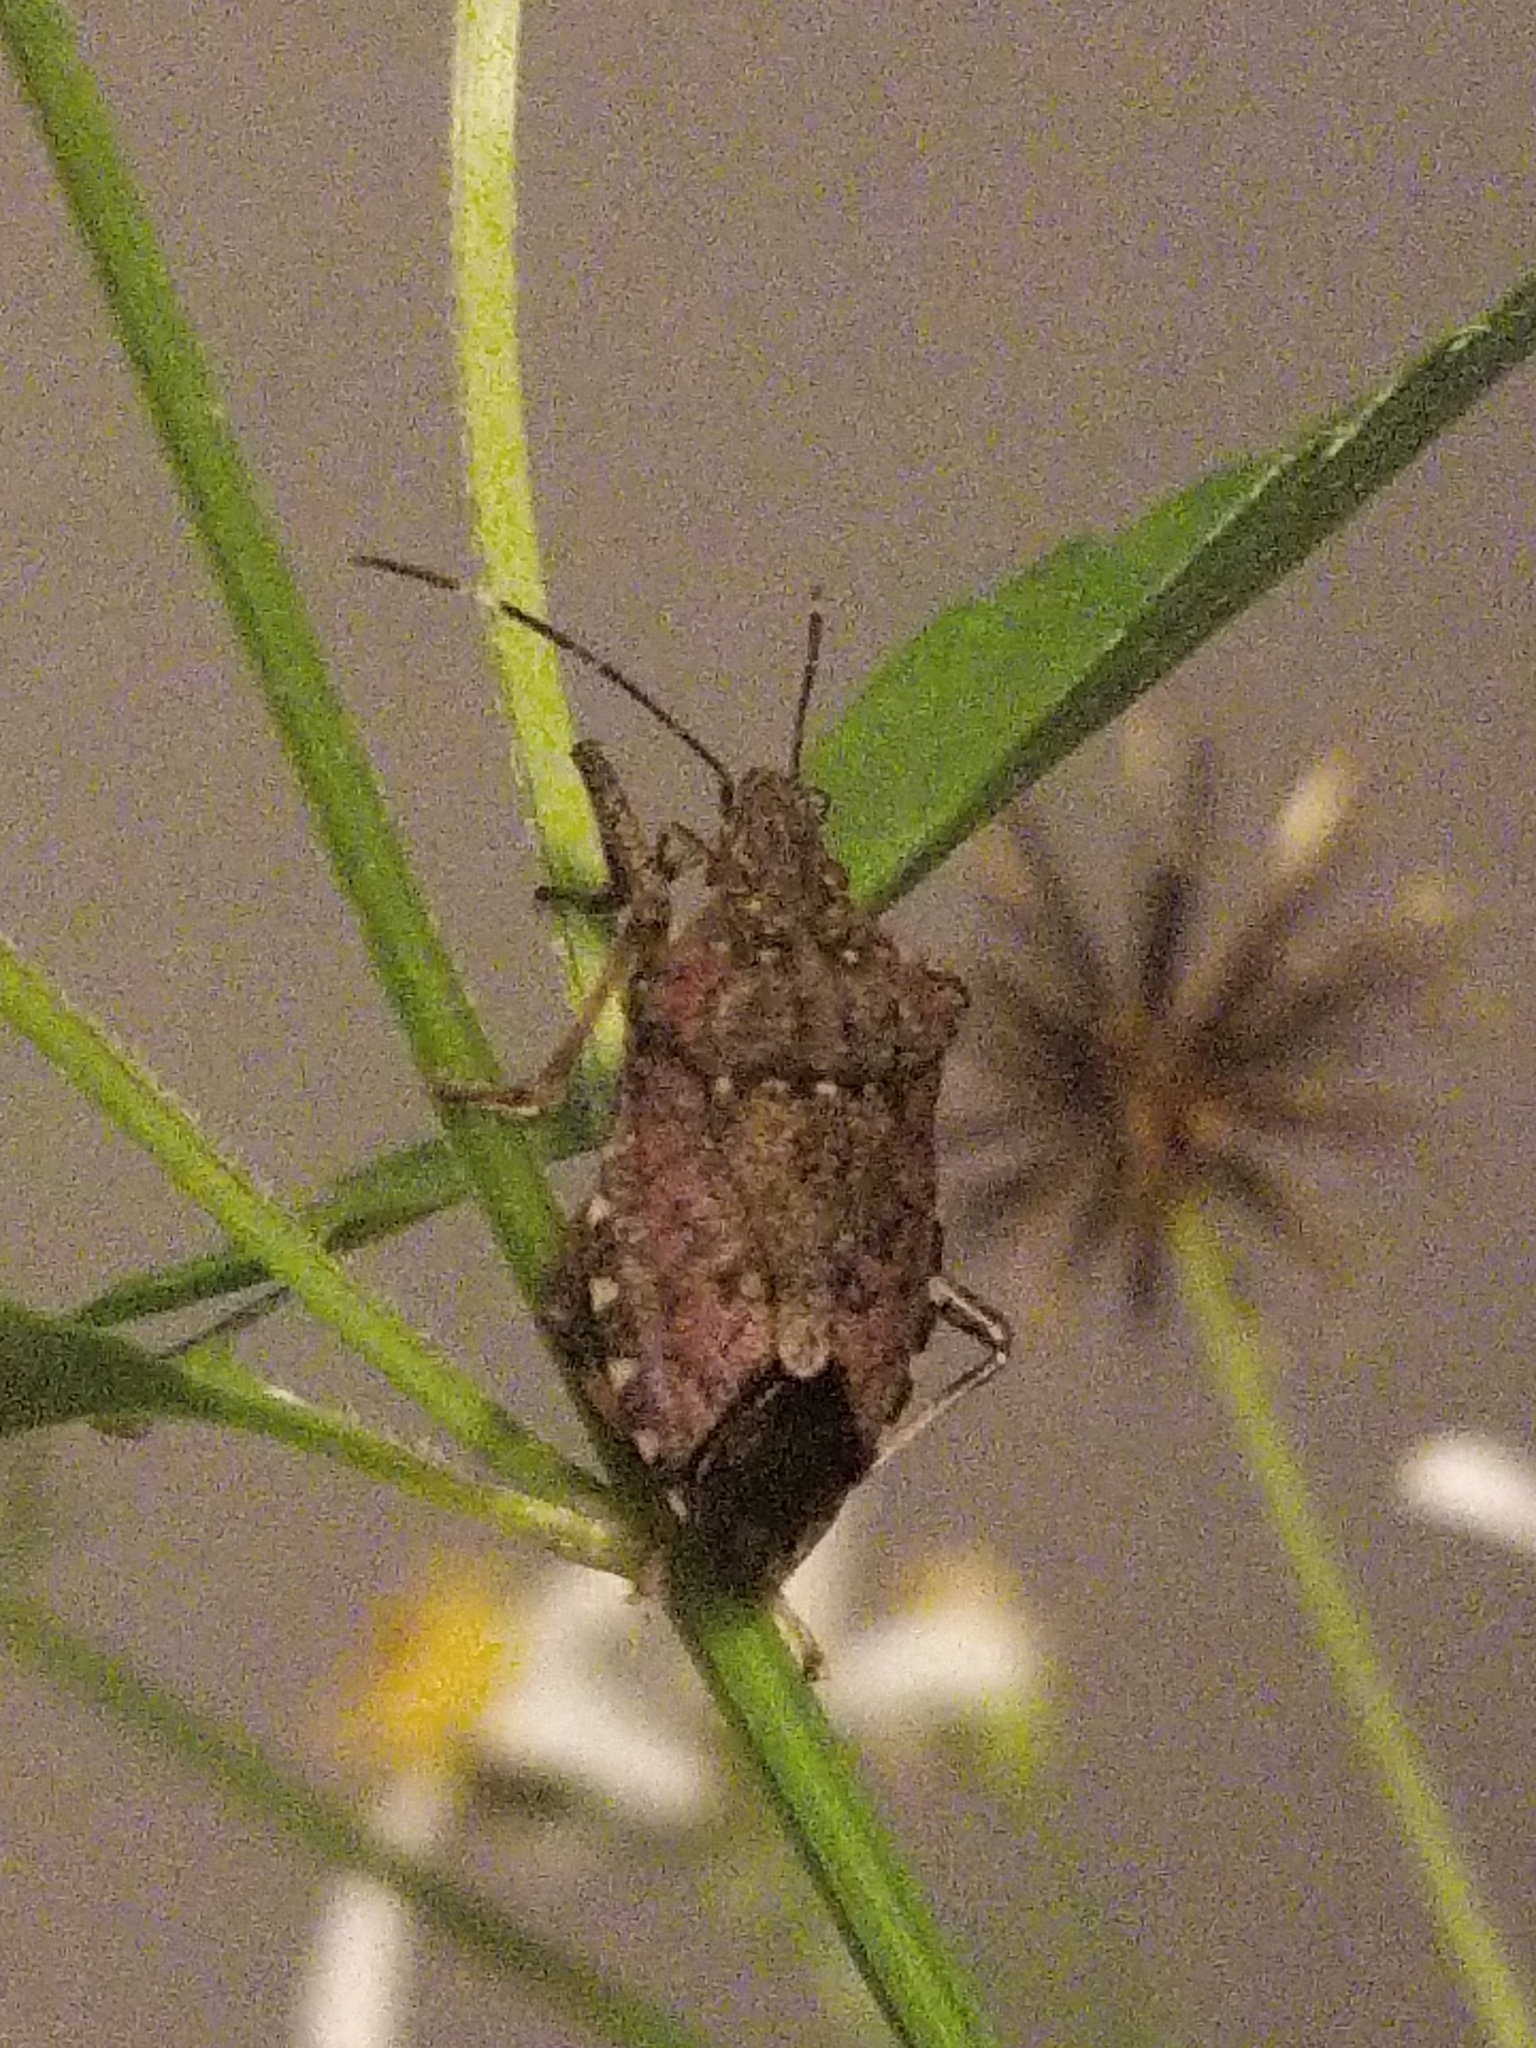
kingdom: Animalia
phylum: Arthropoda
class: Insecta
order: Hemiptera
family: Pentatomidae
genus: Halyomorpha
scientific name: Halyomorpha halys
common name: Brown marmorated stink bug
